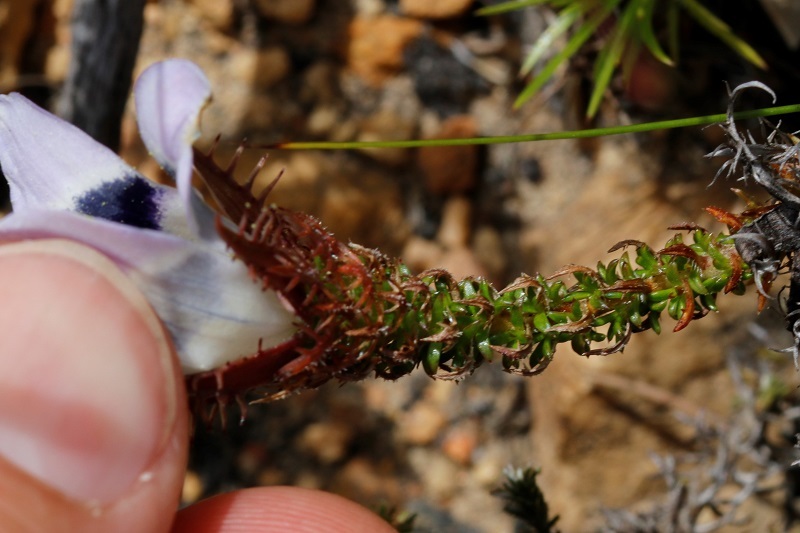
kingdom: Plantae
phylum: Tracheophyta
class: Magnoliopsida
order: Asterales
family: Campanulaceae
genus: Roella
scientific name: Roella ciliata
